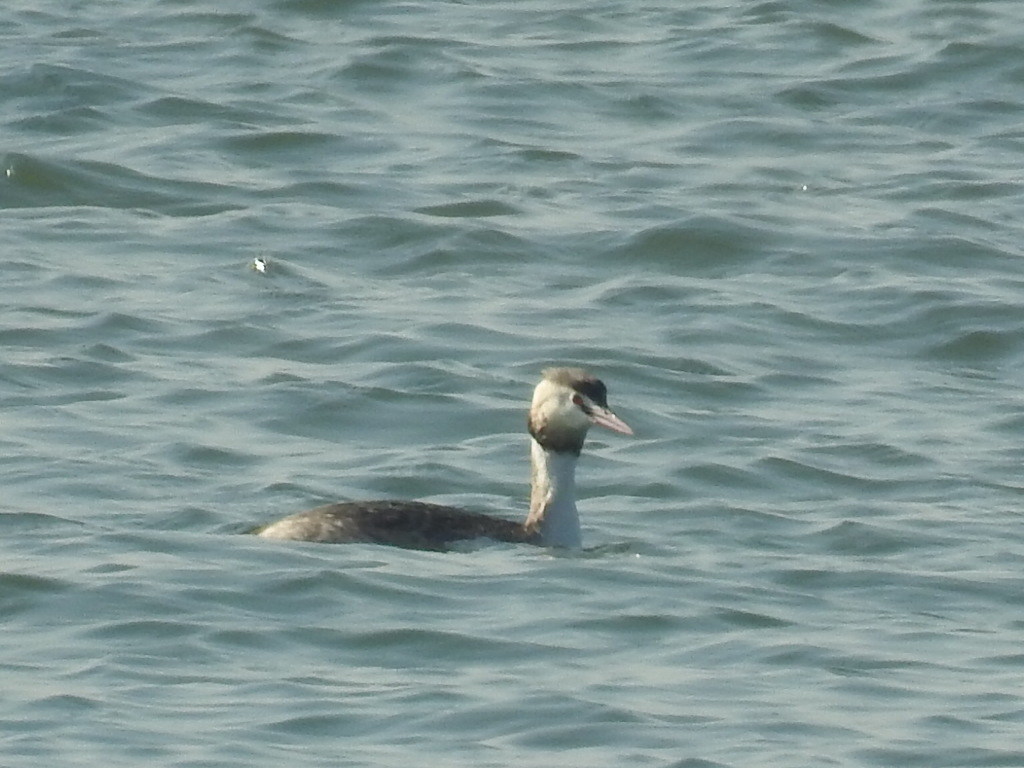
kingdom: Animalia
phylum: Chordata
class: Aves
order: Podicipediformes
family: Podicipedidae
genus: Podiceps
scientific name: Podiceps cristatus
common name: Great crested grebe
